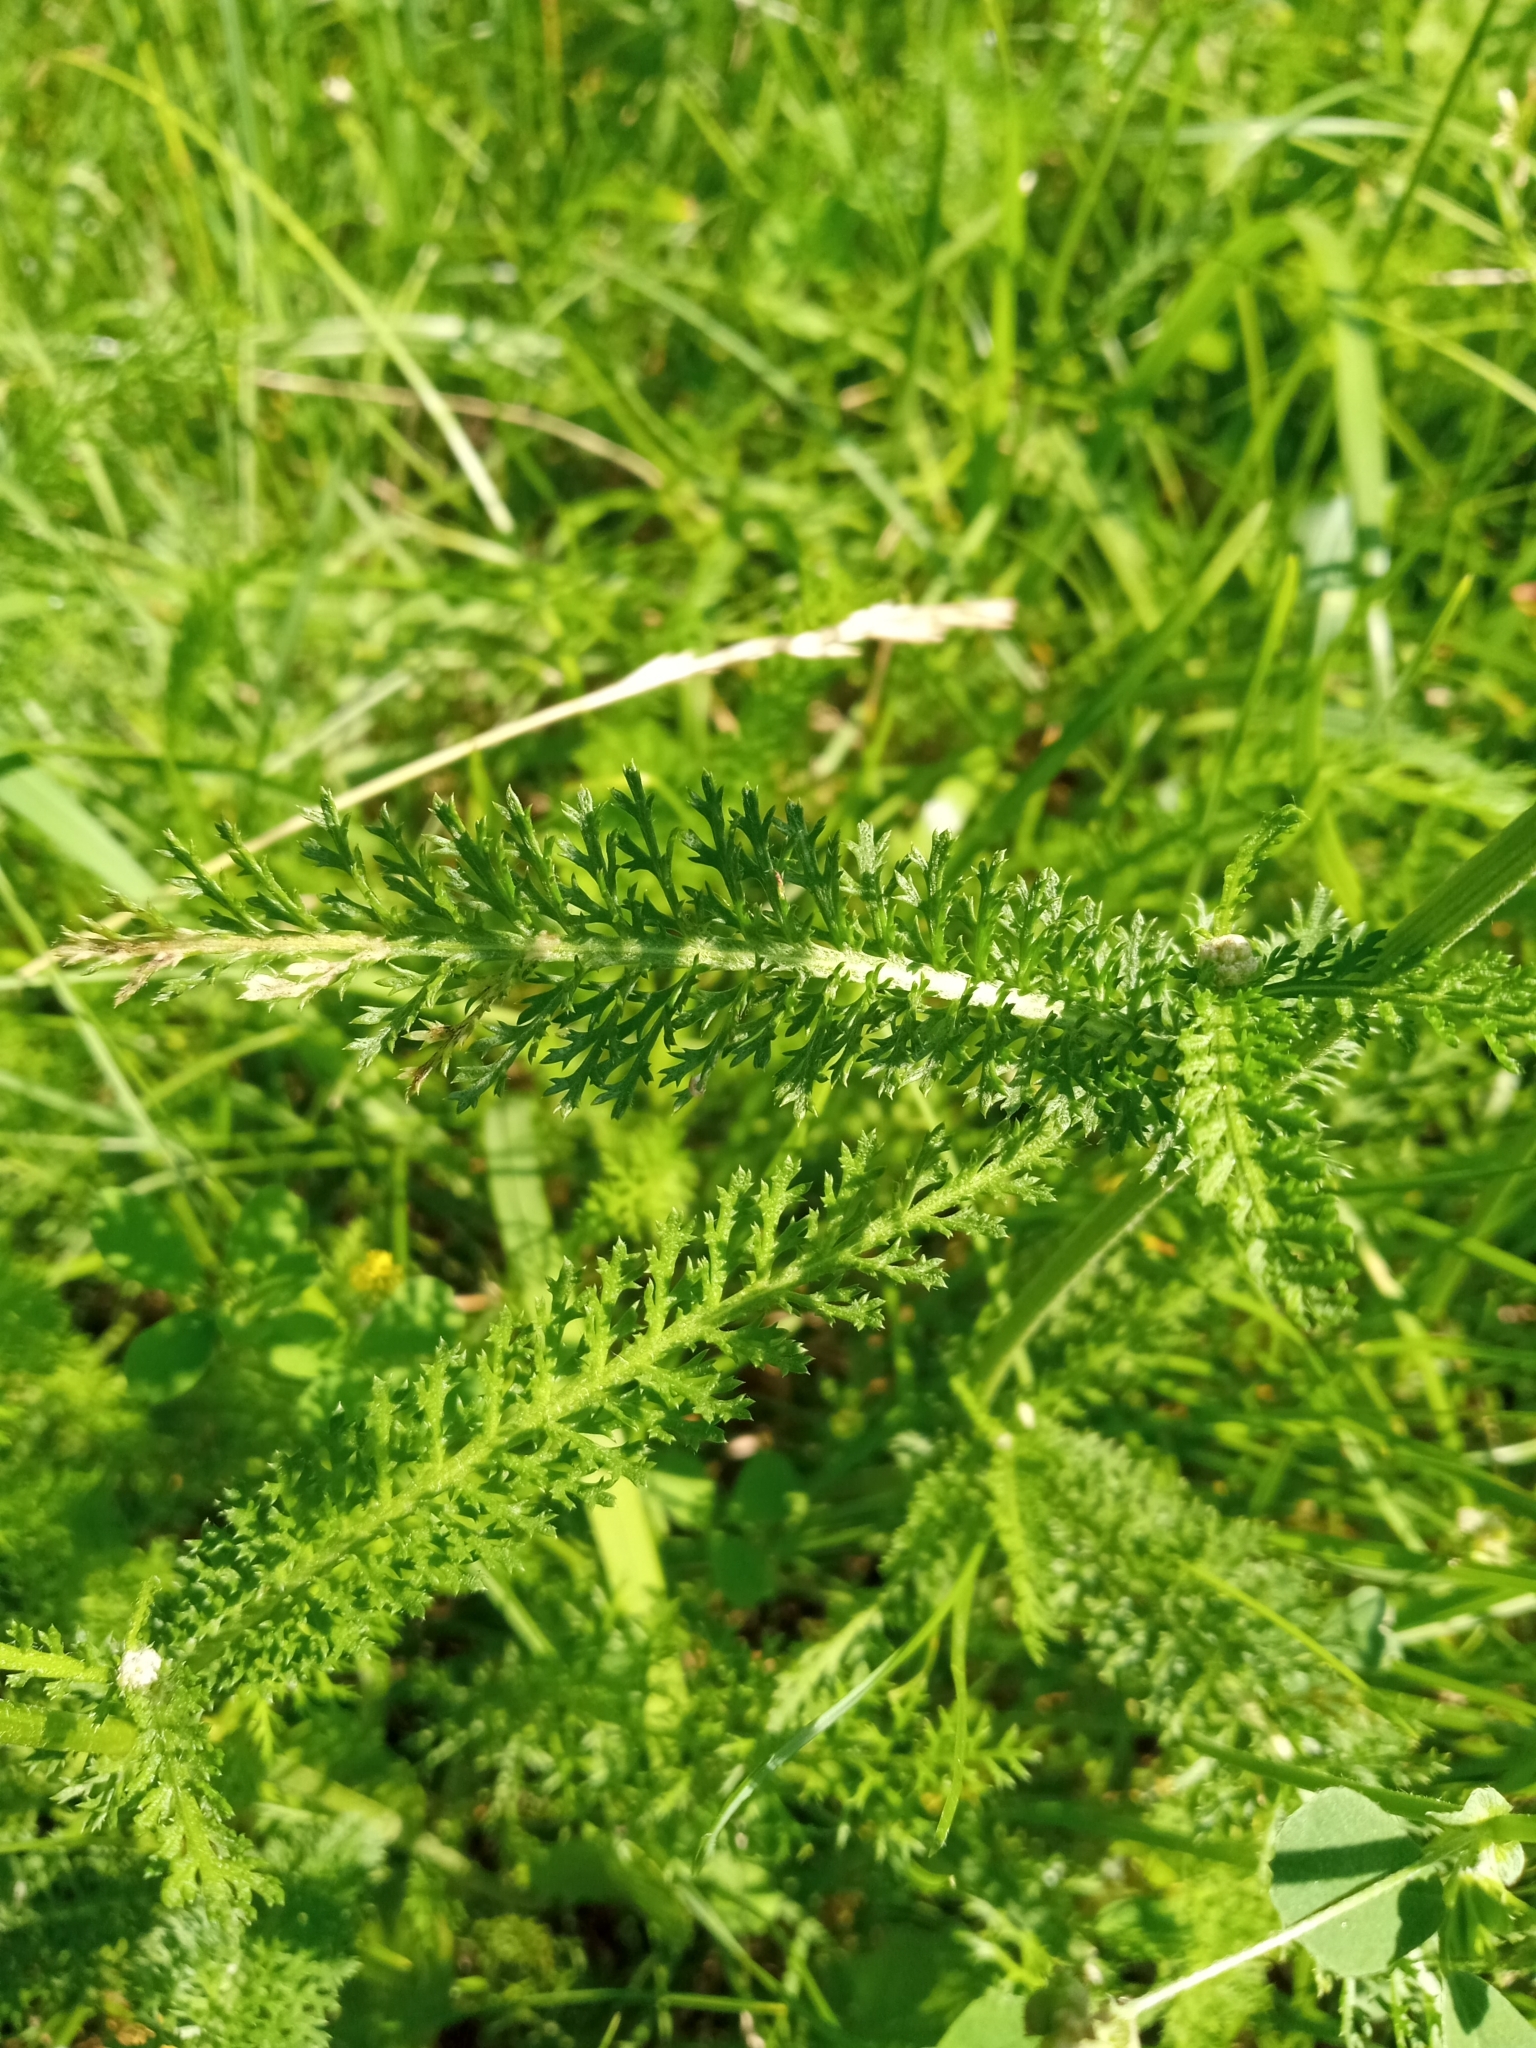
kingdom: Plantae
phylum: Tracheophyta
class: Magnoliopsida
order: Asterales
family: Asteraceae
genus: Achillea
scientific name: Achillea millefolium
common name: Yarrow
